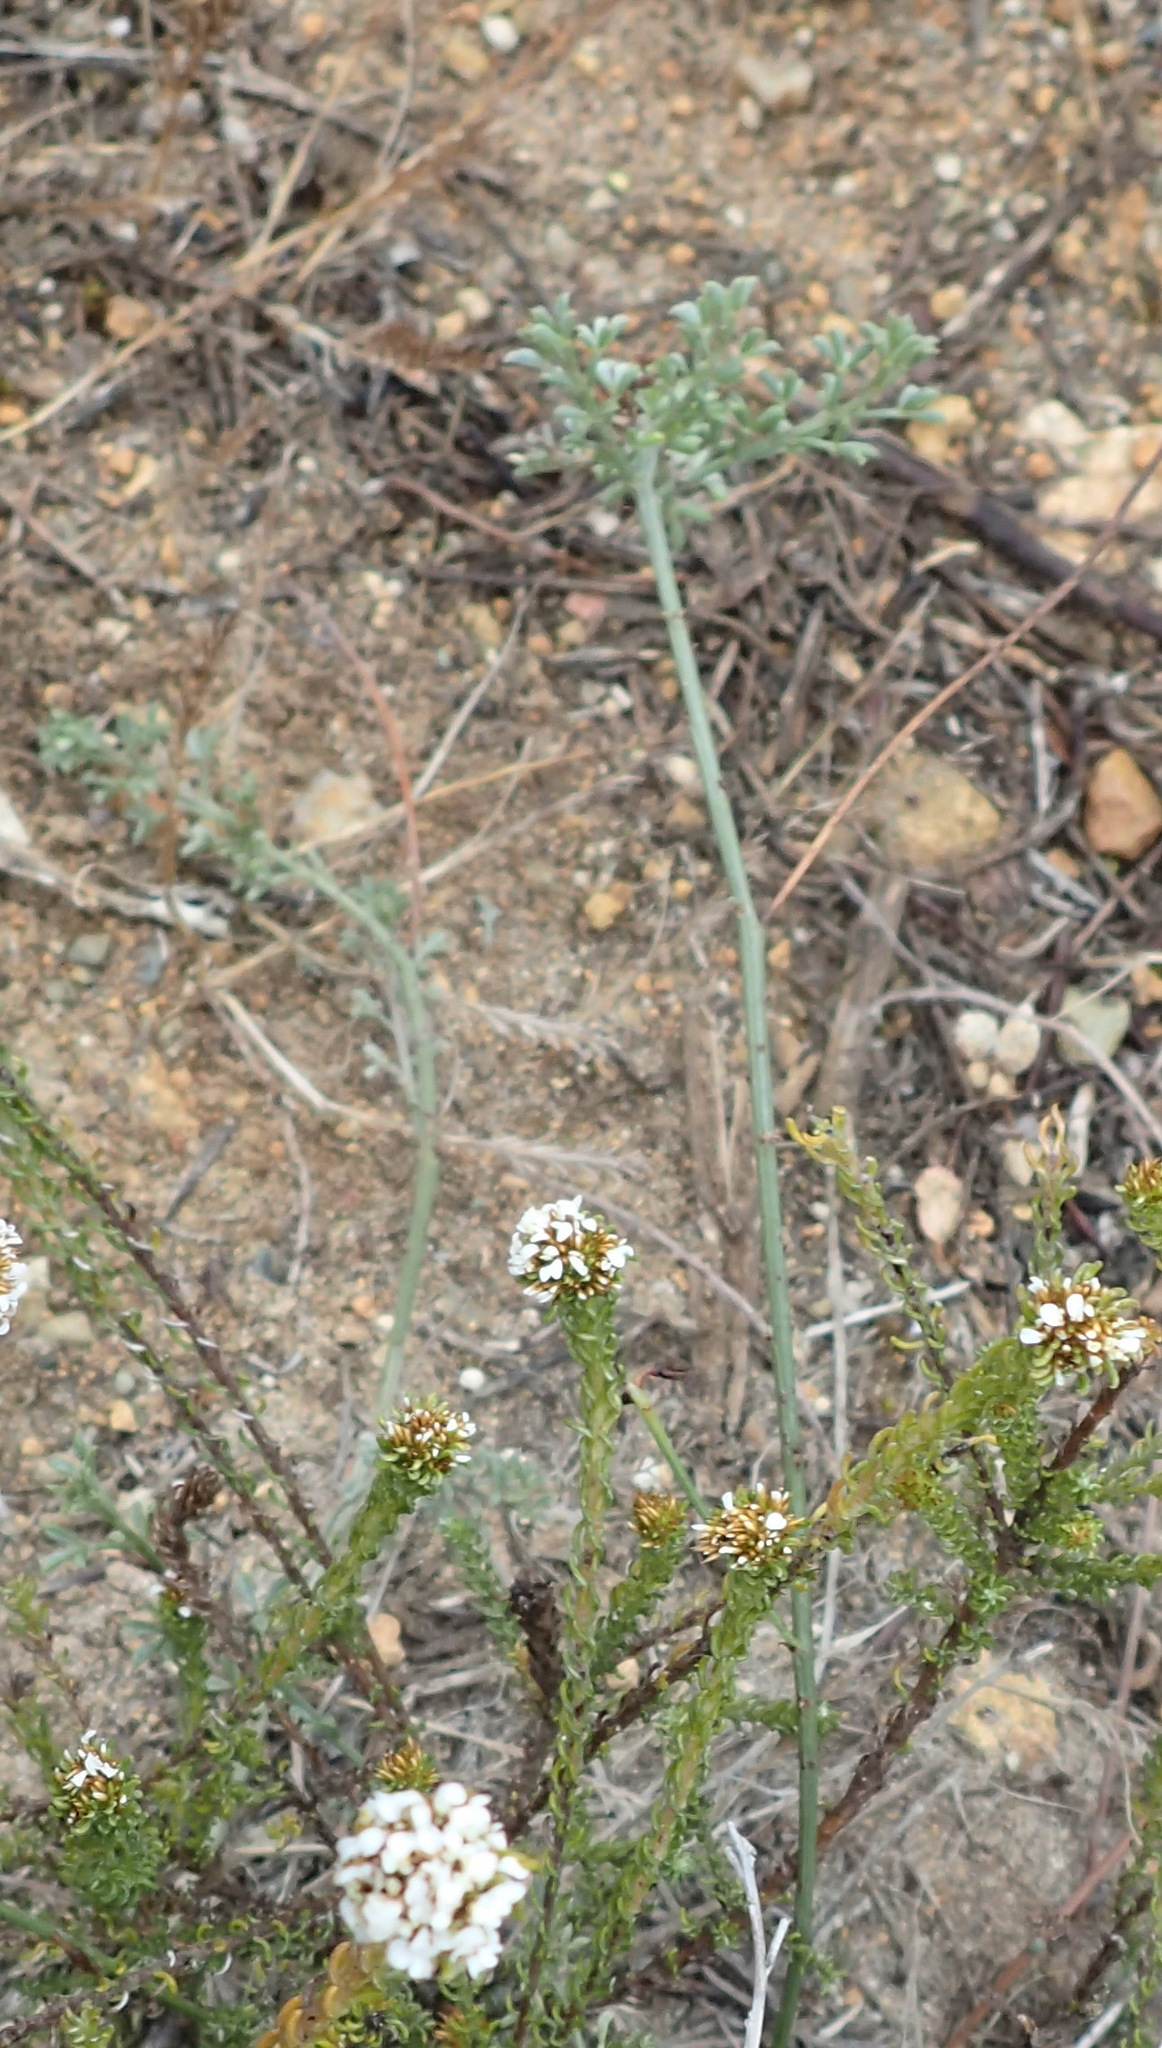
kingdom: Plantae
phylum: Tracheophyta
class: Magnoliopsida
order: Fabales
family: Fabaceae
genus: Indigofera
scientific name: Indigofera
